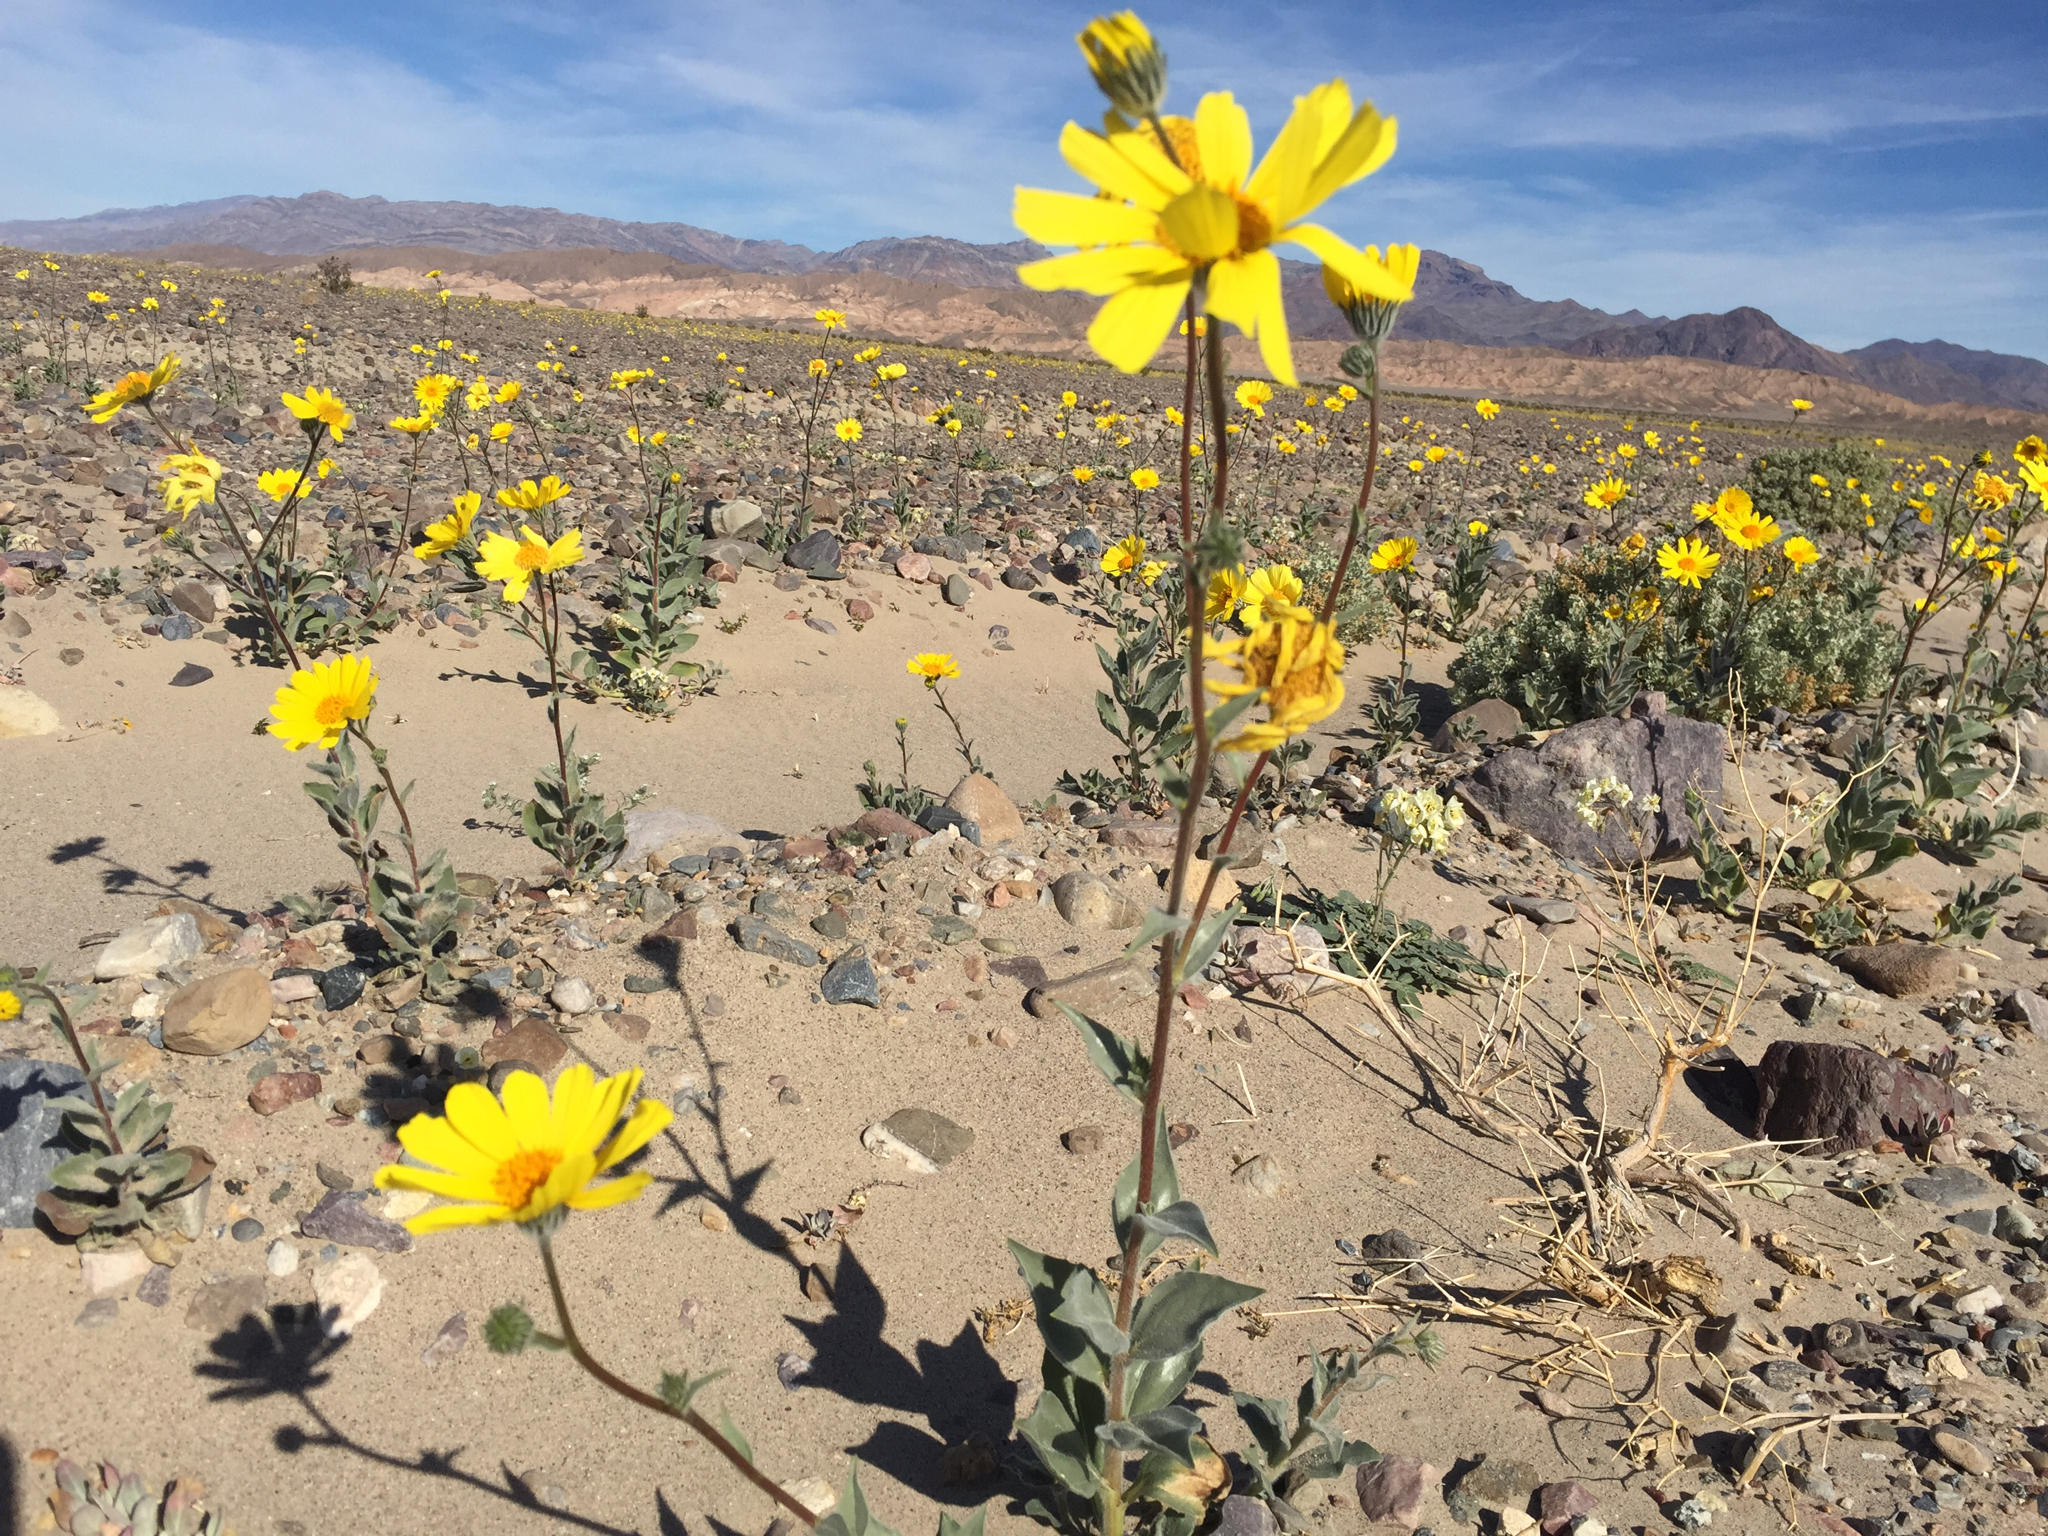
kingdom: Plantae
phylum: Tracheophyta
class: Magnoliopsida
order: Asterales
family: Asteraceae
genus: Geraea
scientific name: Geraea canescens
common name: Desert-gold
